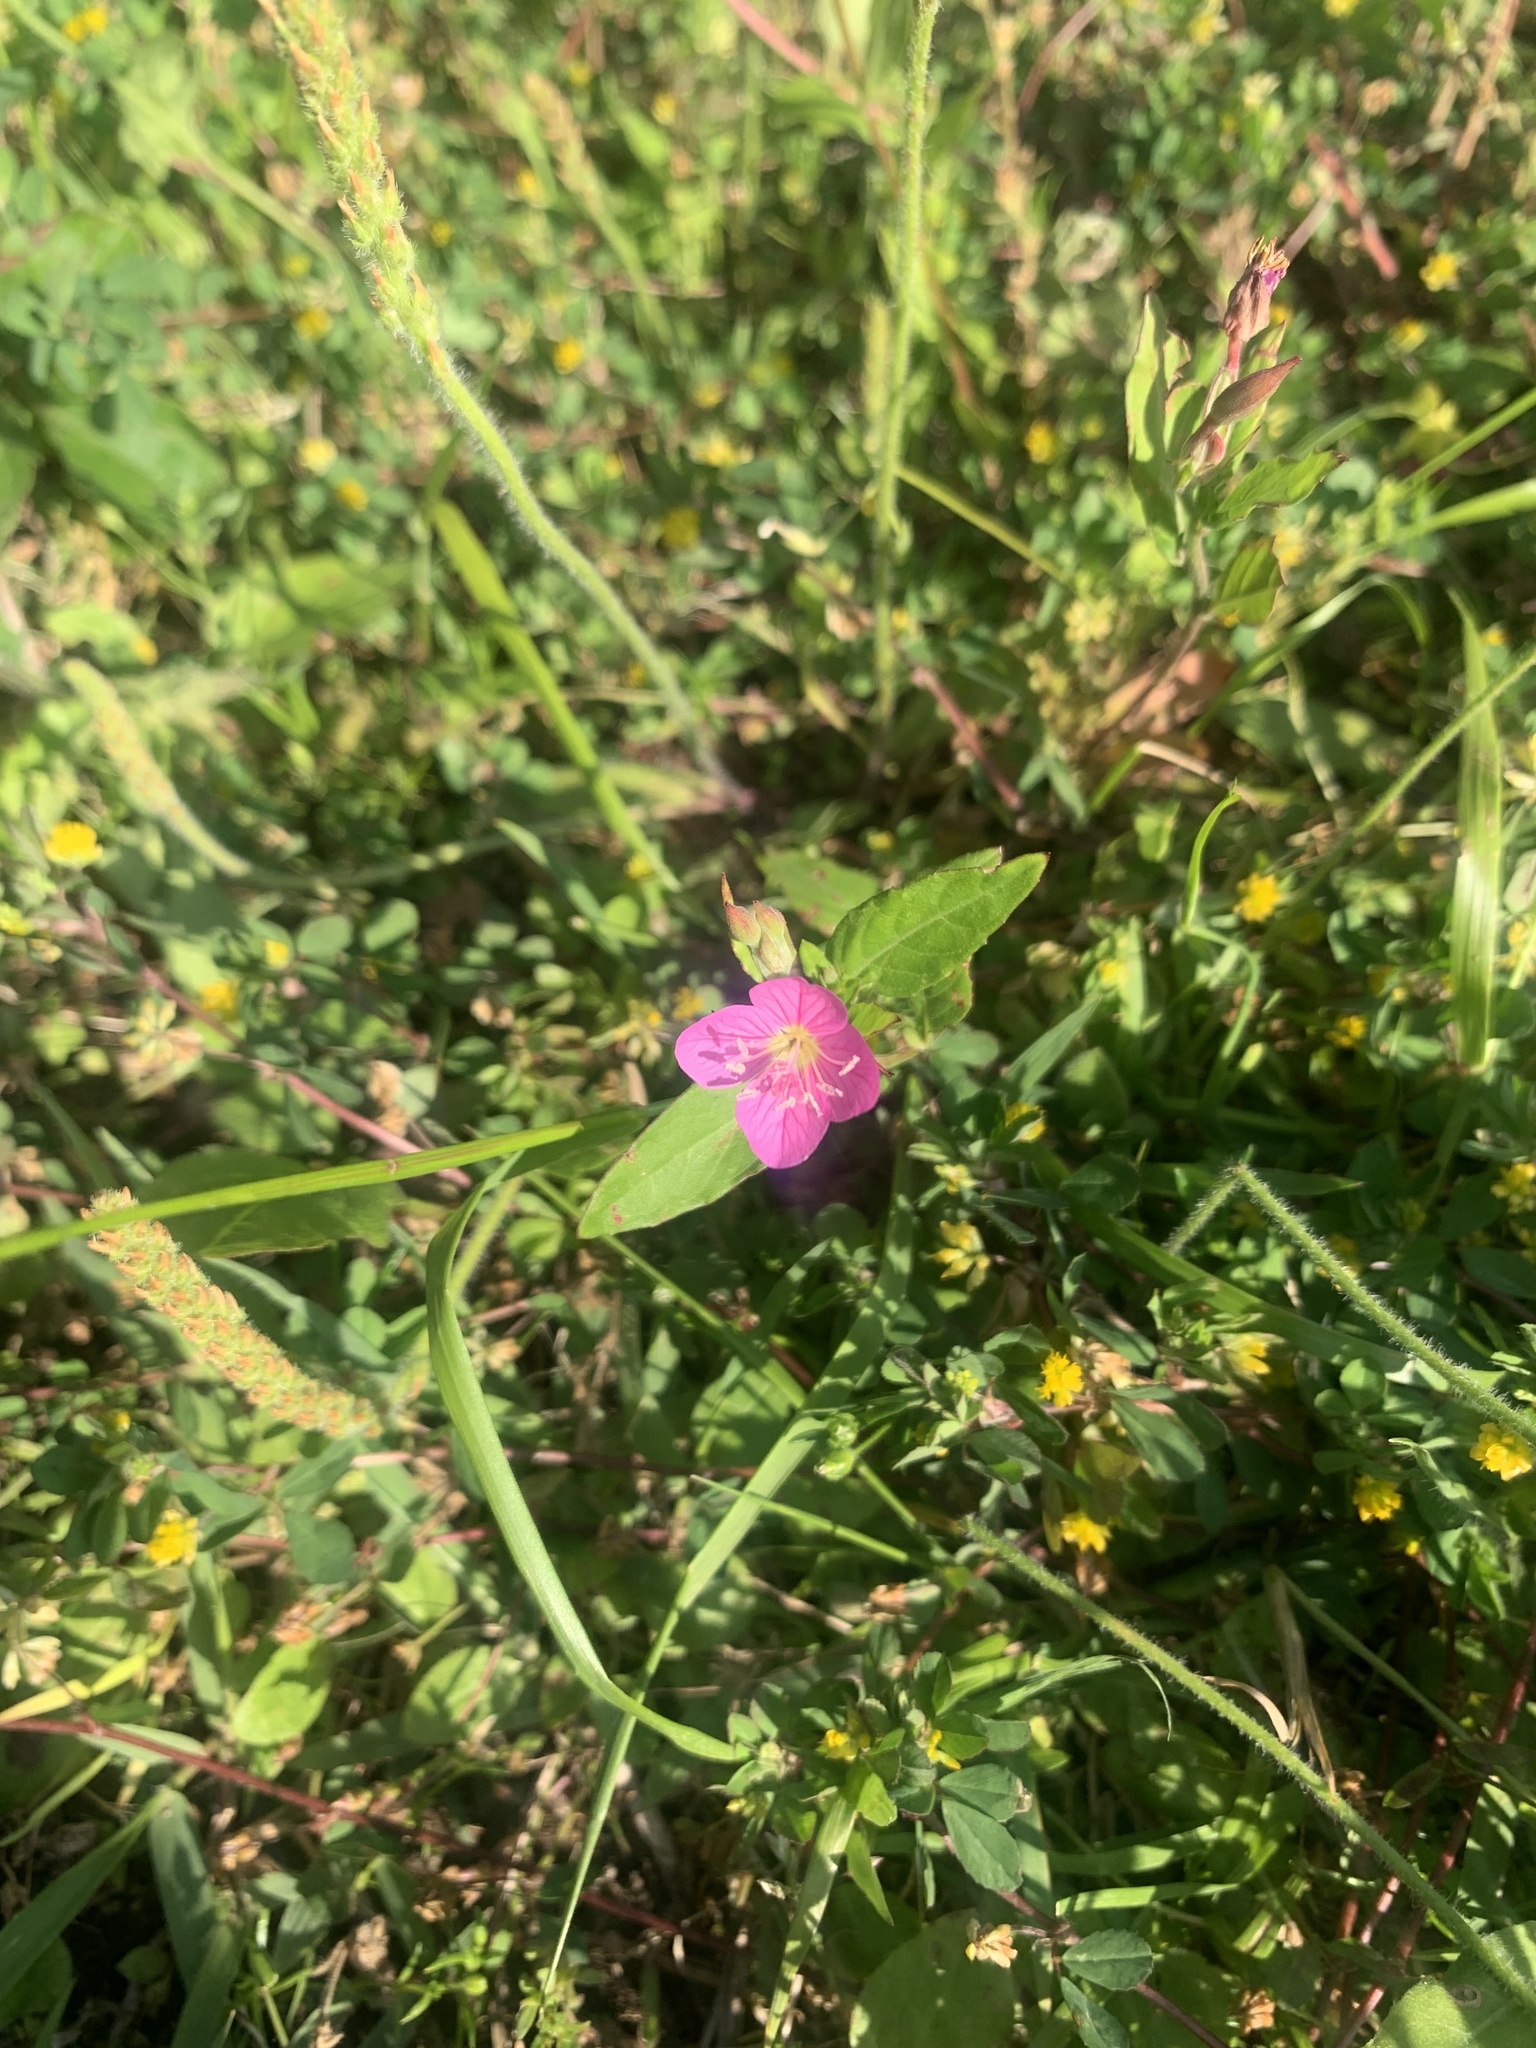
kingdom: Plantae
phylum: Tracheophyta
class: Magnoliopsida
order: Myrtales
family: Onagraceae
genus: Oenothera
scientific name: Oenothera rosea
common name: Rosy evening-primrose
